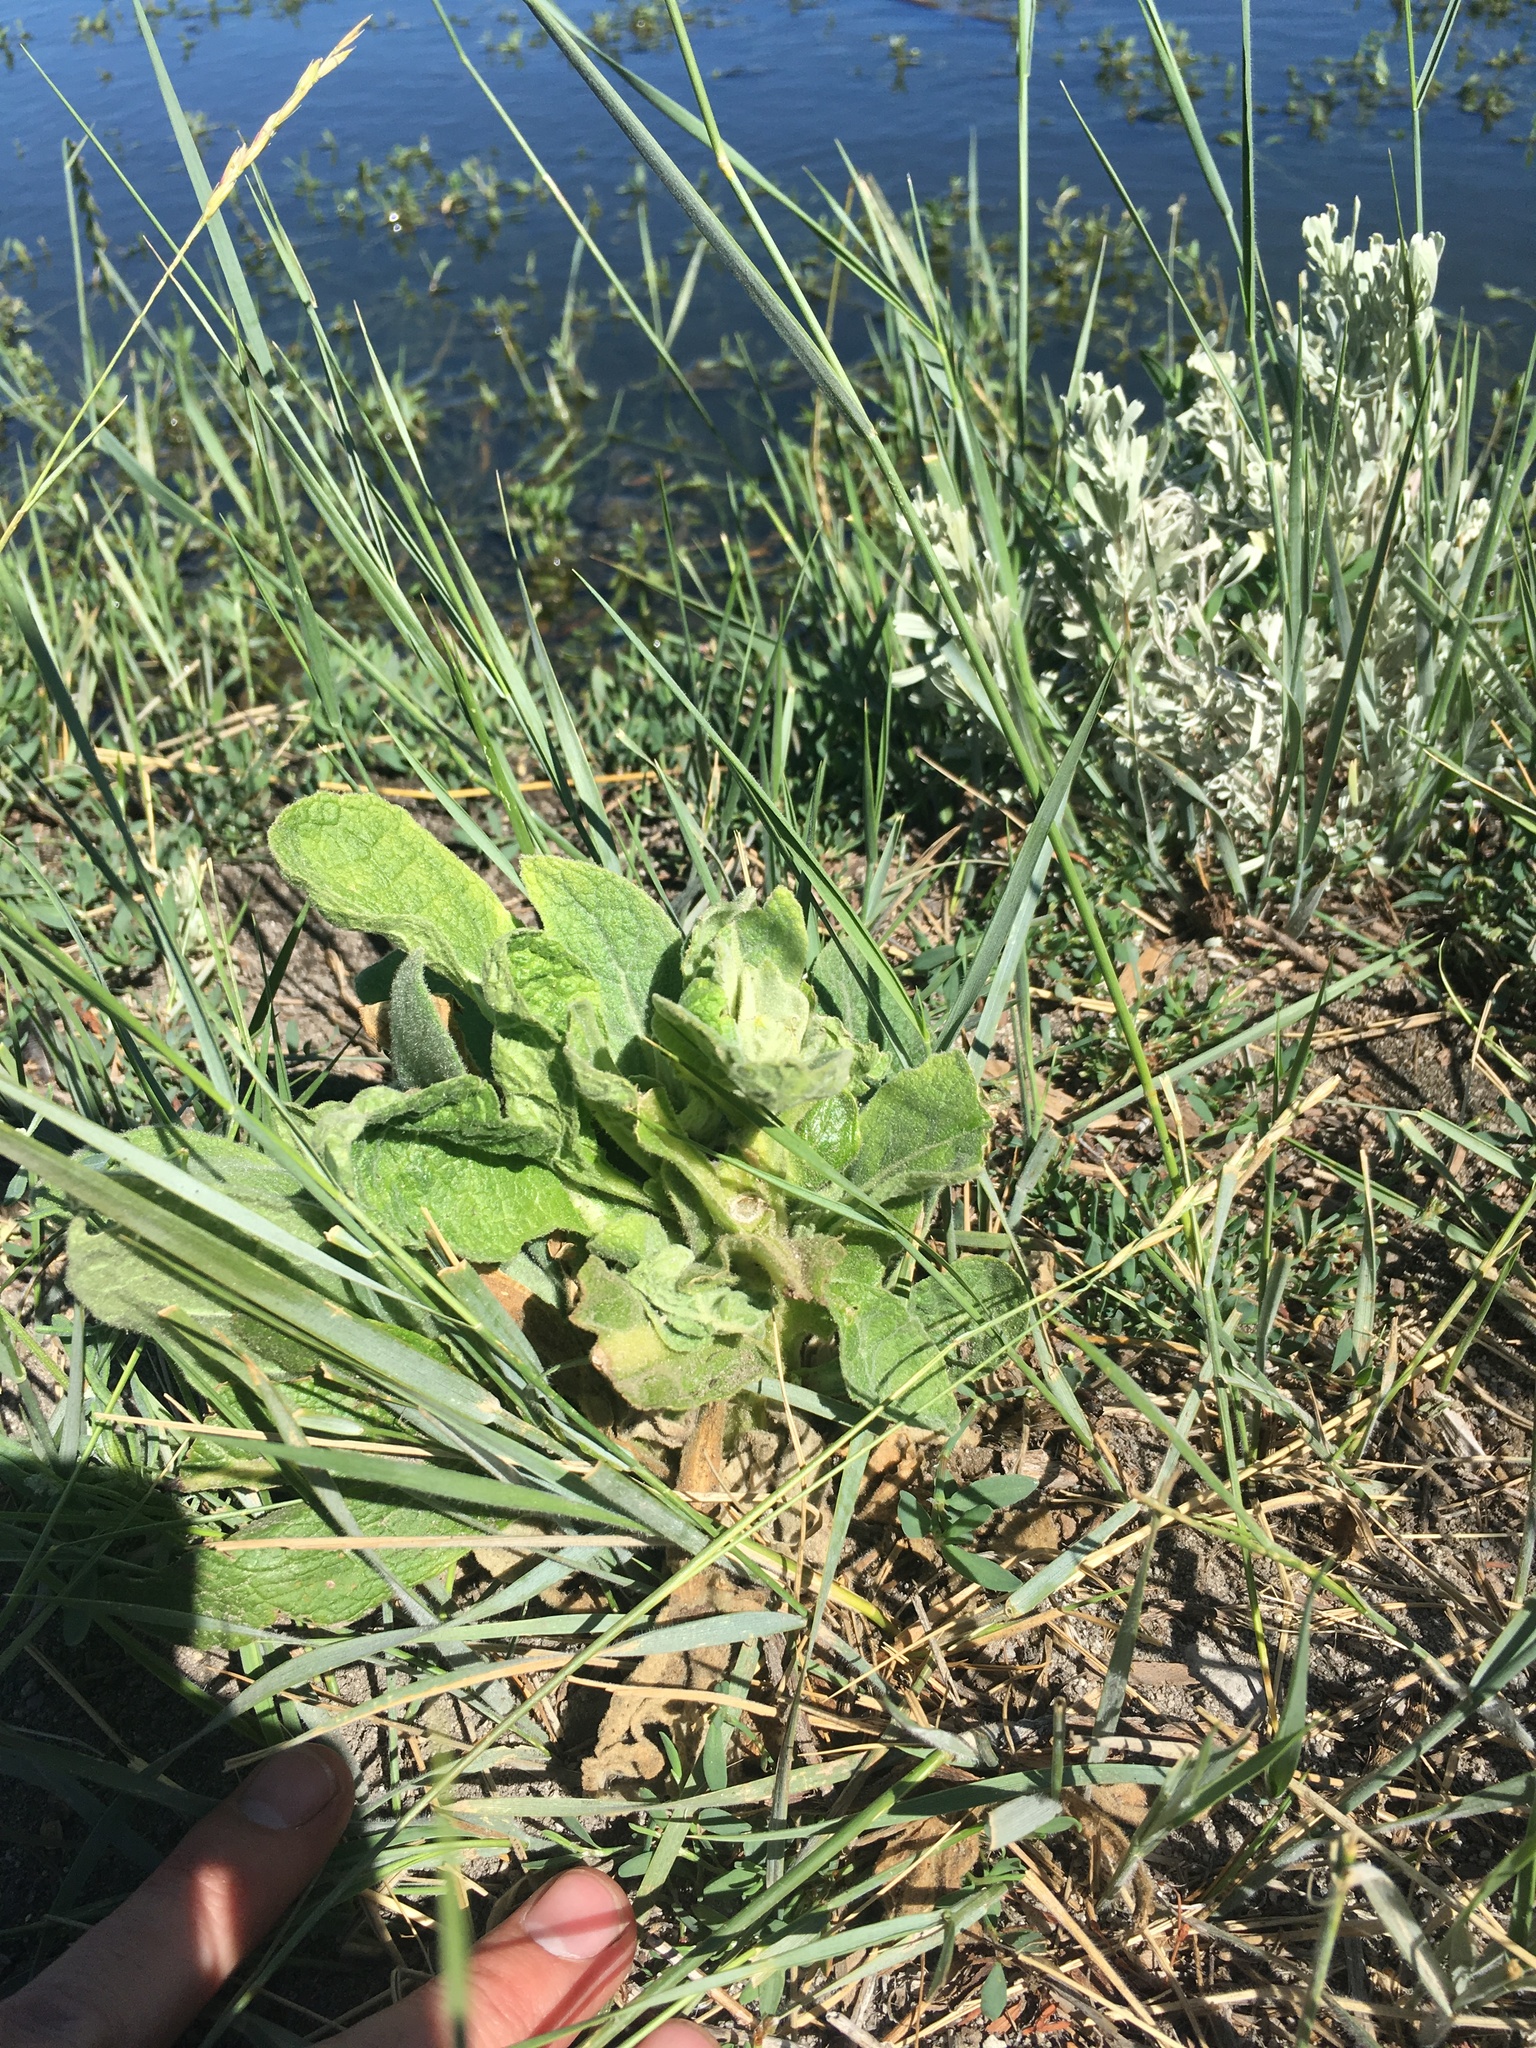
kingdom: Plantae
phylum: Tracheophyta
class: Magnoliopsida
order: Lamiales
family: Scrophulariaceae
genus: Verbascum
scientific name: Verbascum thapsus
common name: Common mullein
